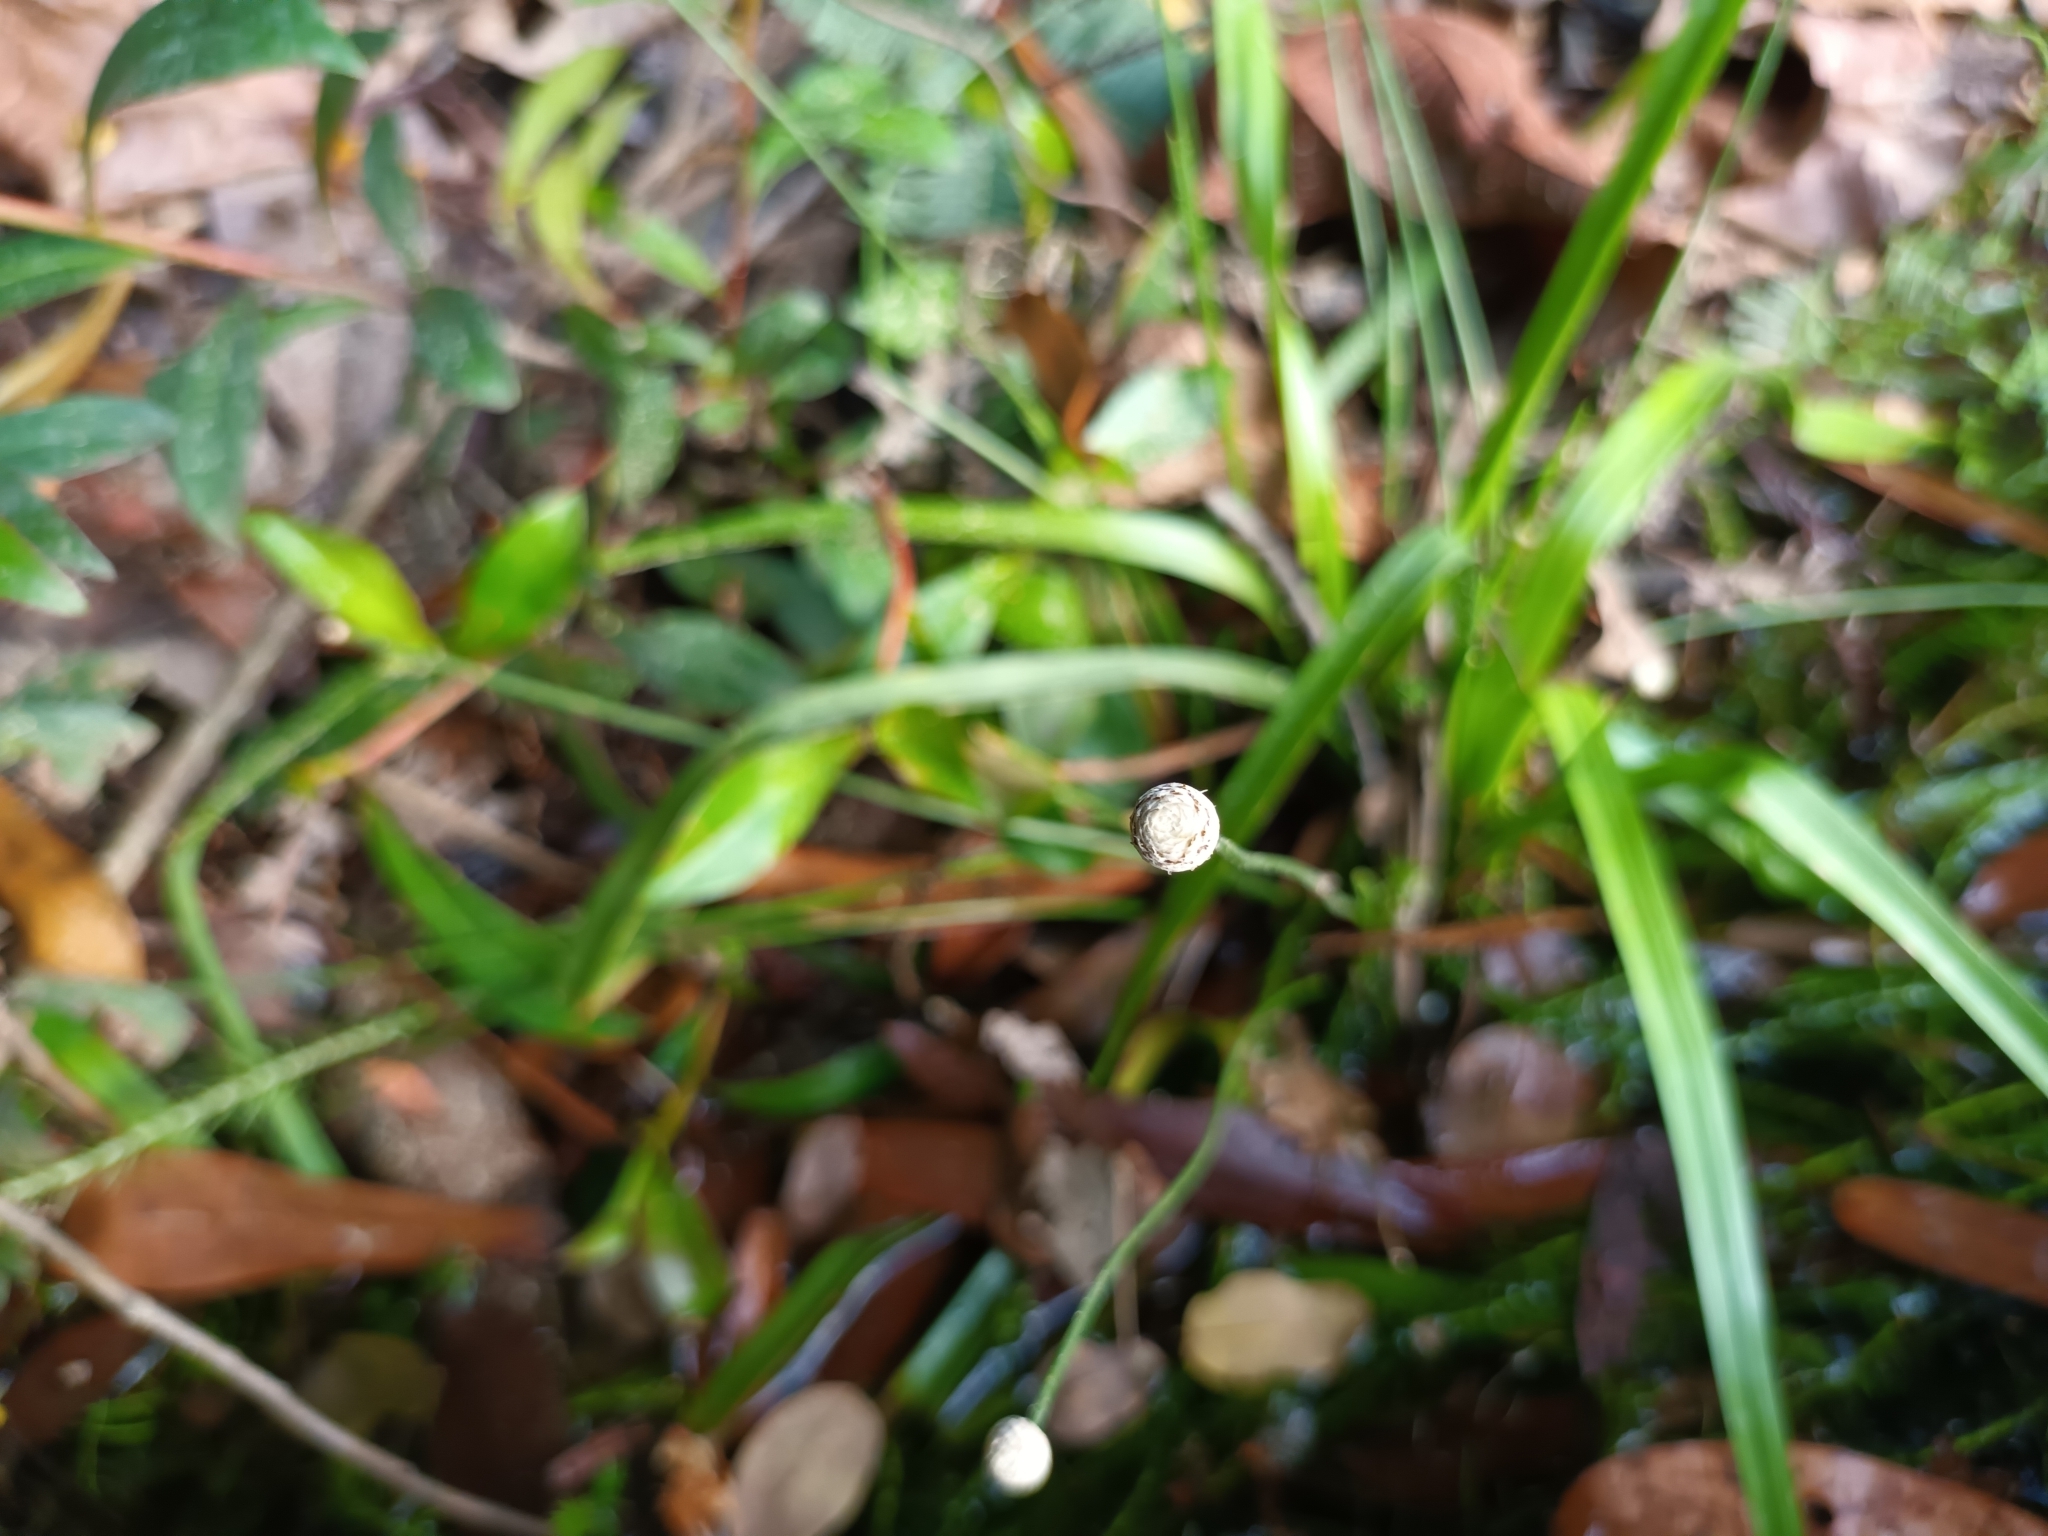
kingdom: Plantae
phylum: Tracheophyta
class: Liliopsida
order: Poales
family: Eriocaulaceae
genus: Eriocaulon
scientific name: Eriocaulon willdenovianum
